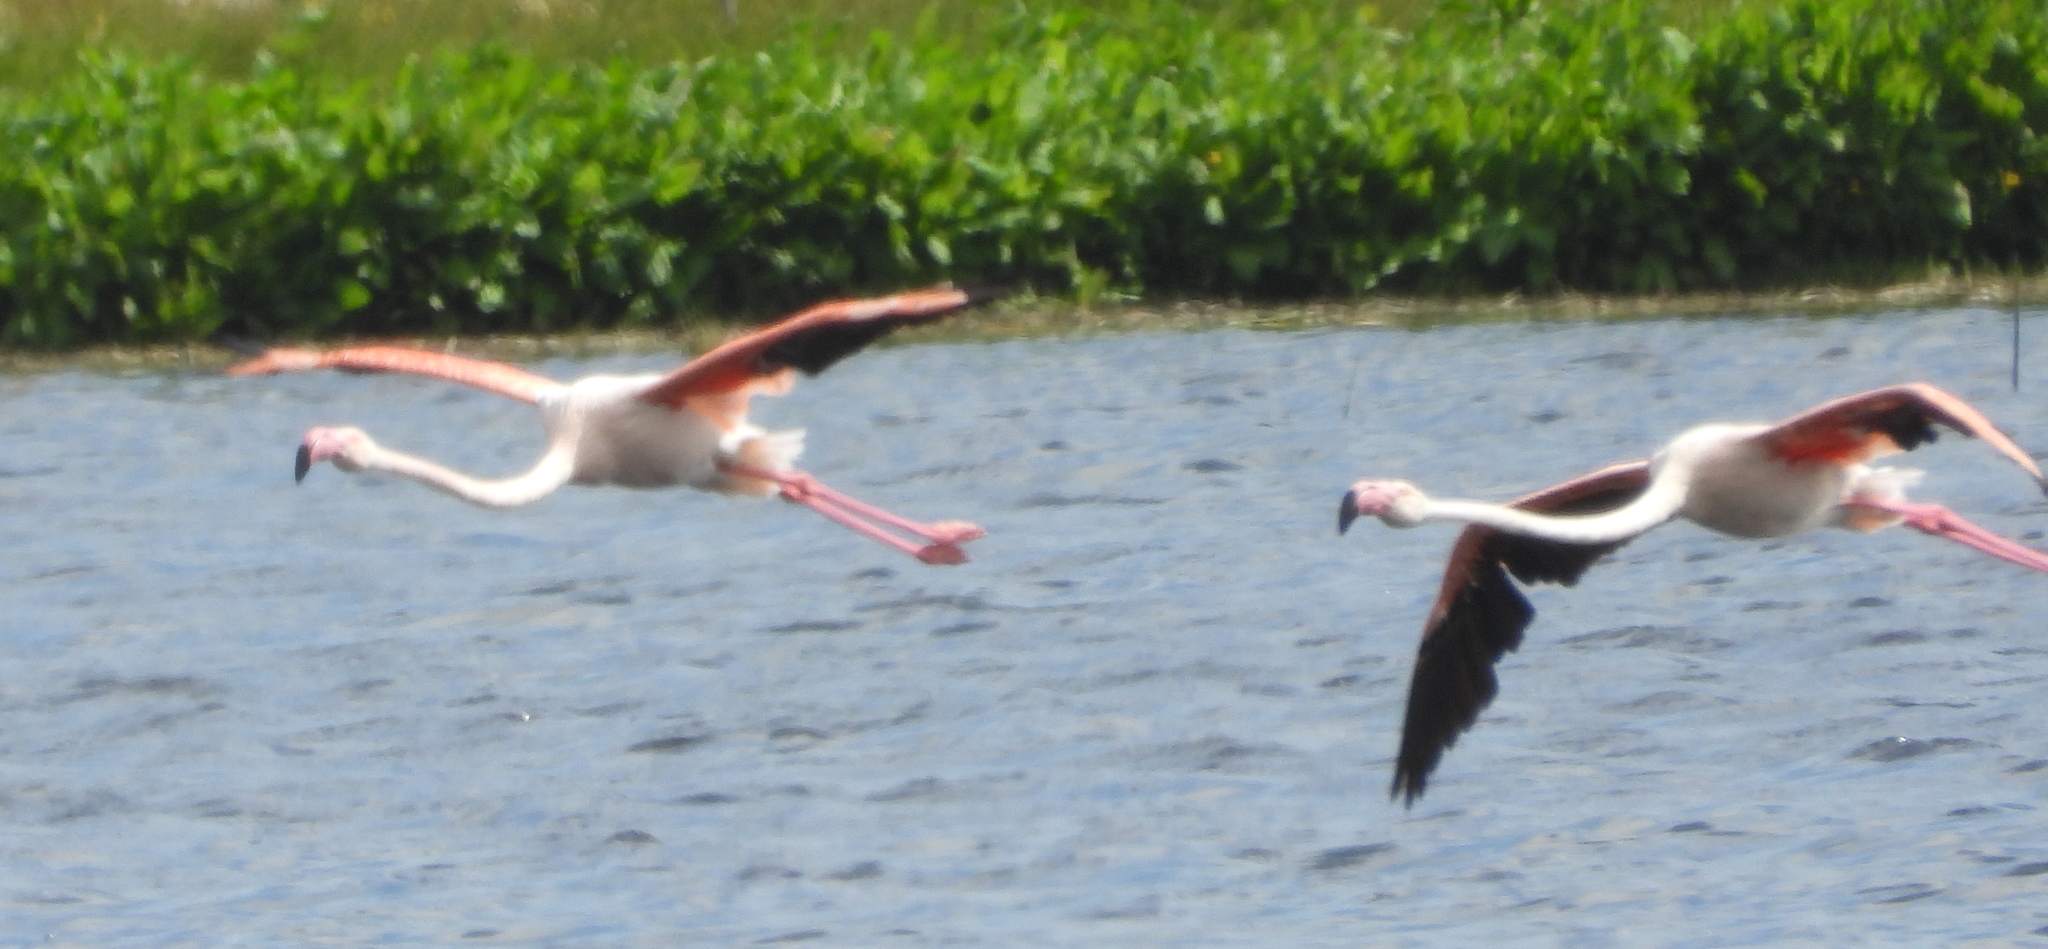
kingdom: Animalia
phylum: Chordata
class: Aves
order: Phoenicopteriformes
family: Phoenicopteridae
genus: Phoenicopterus
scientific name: Phoenicopterus roseus
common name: Greater flamingo
